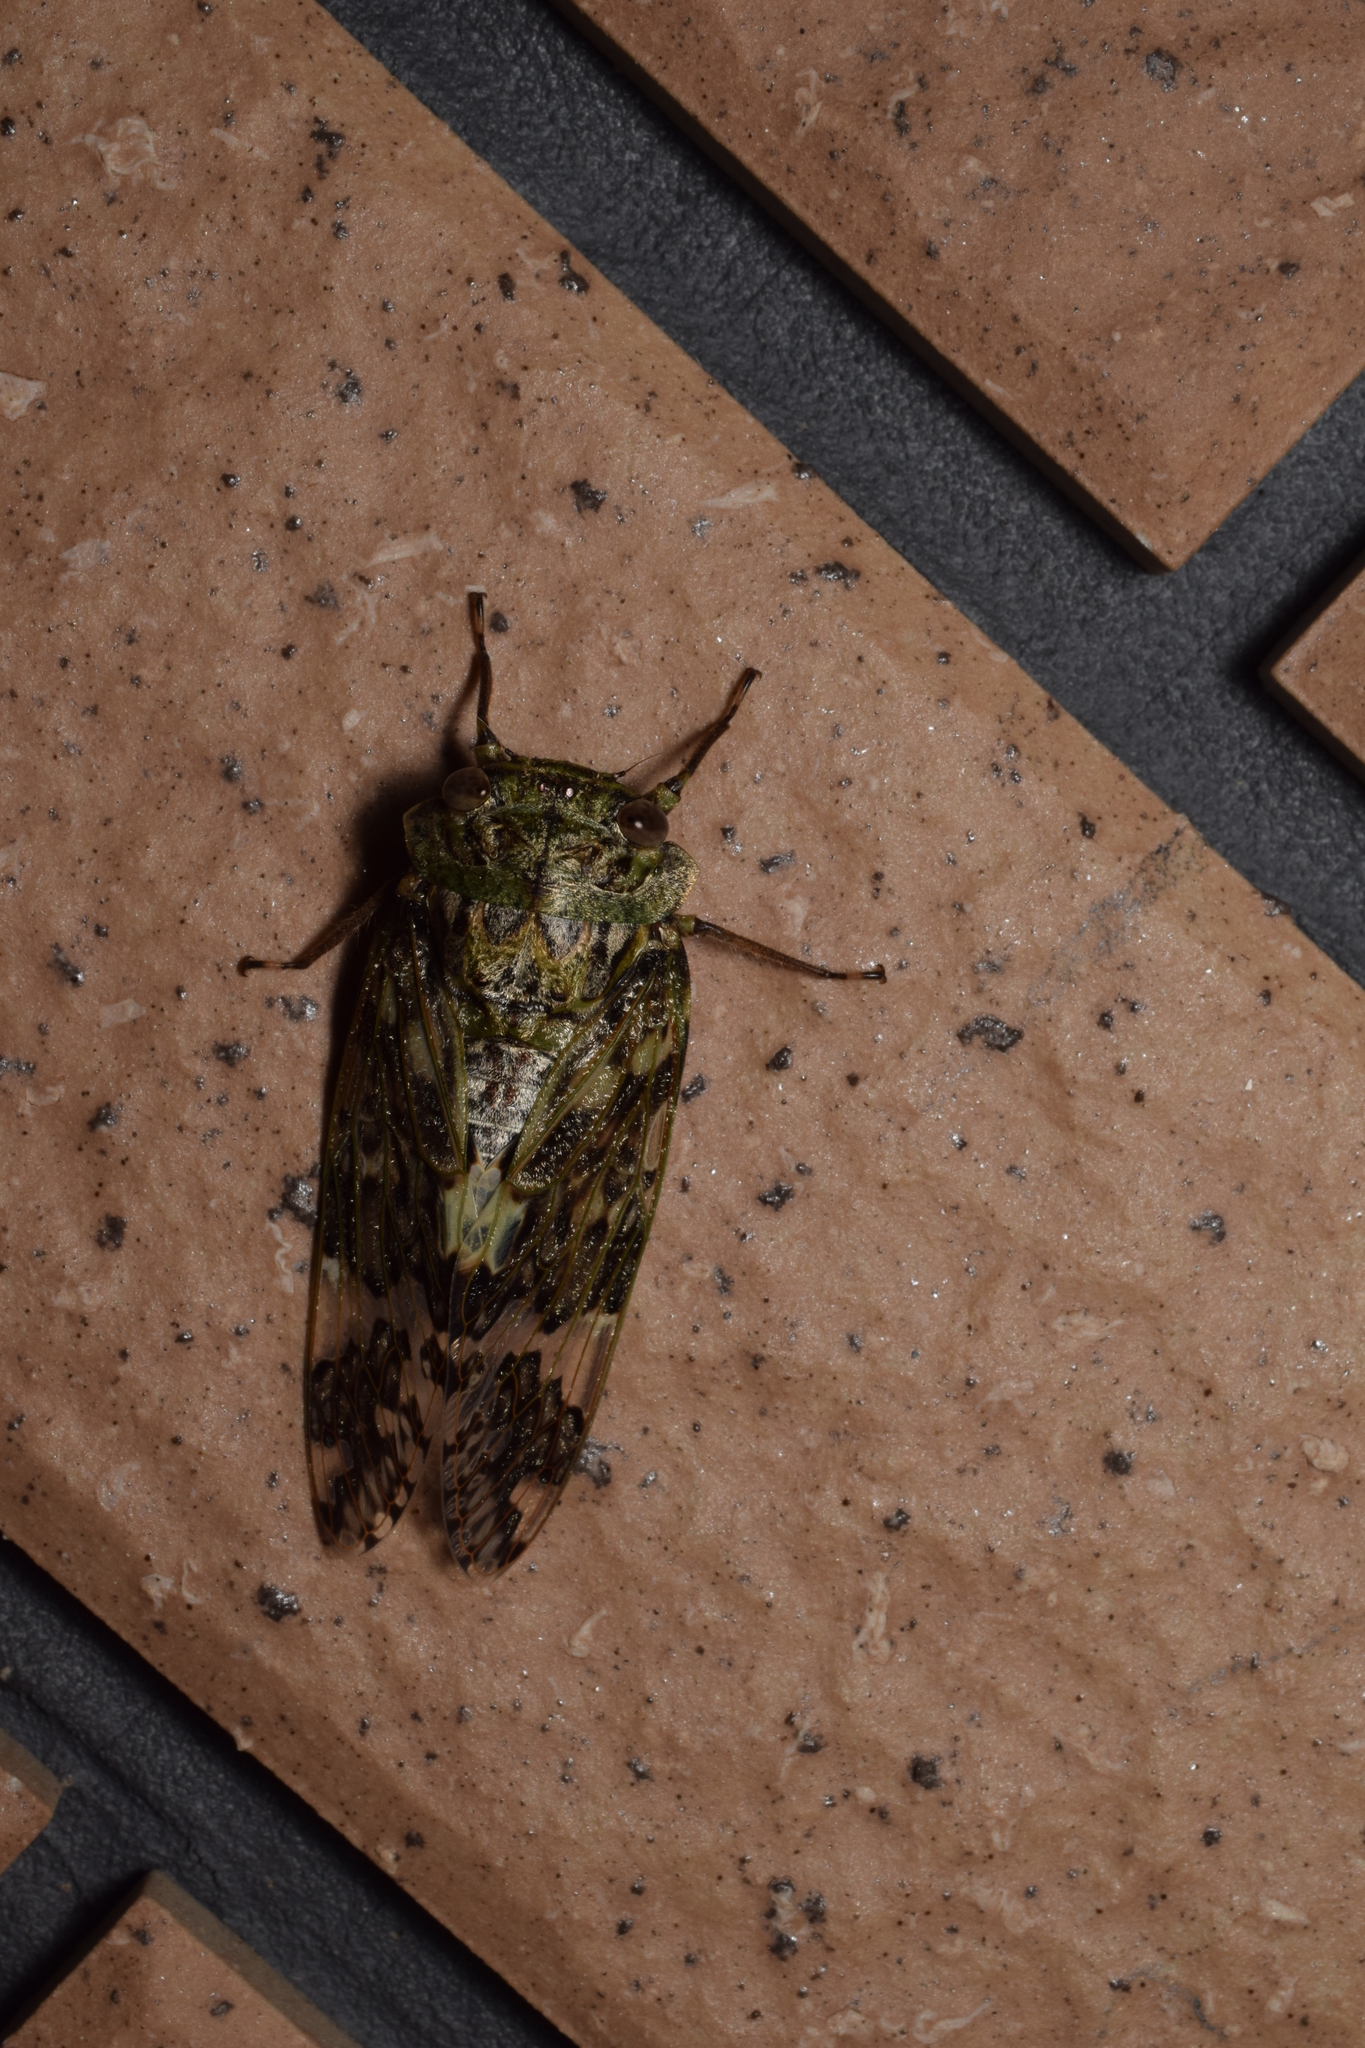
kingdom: Animalia
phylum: Arthropoda
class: Insecta
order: Hemiptera
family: Cicadidae
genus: Platypleura
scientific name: Platypleura kaempferi
